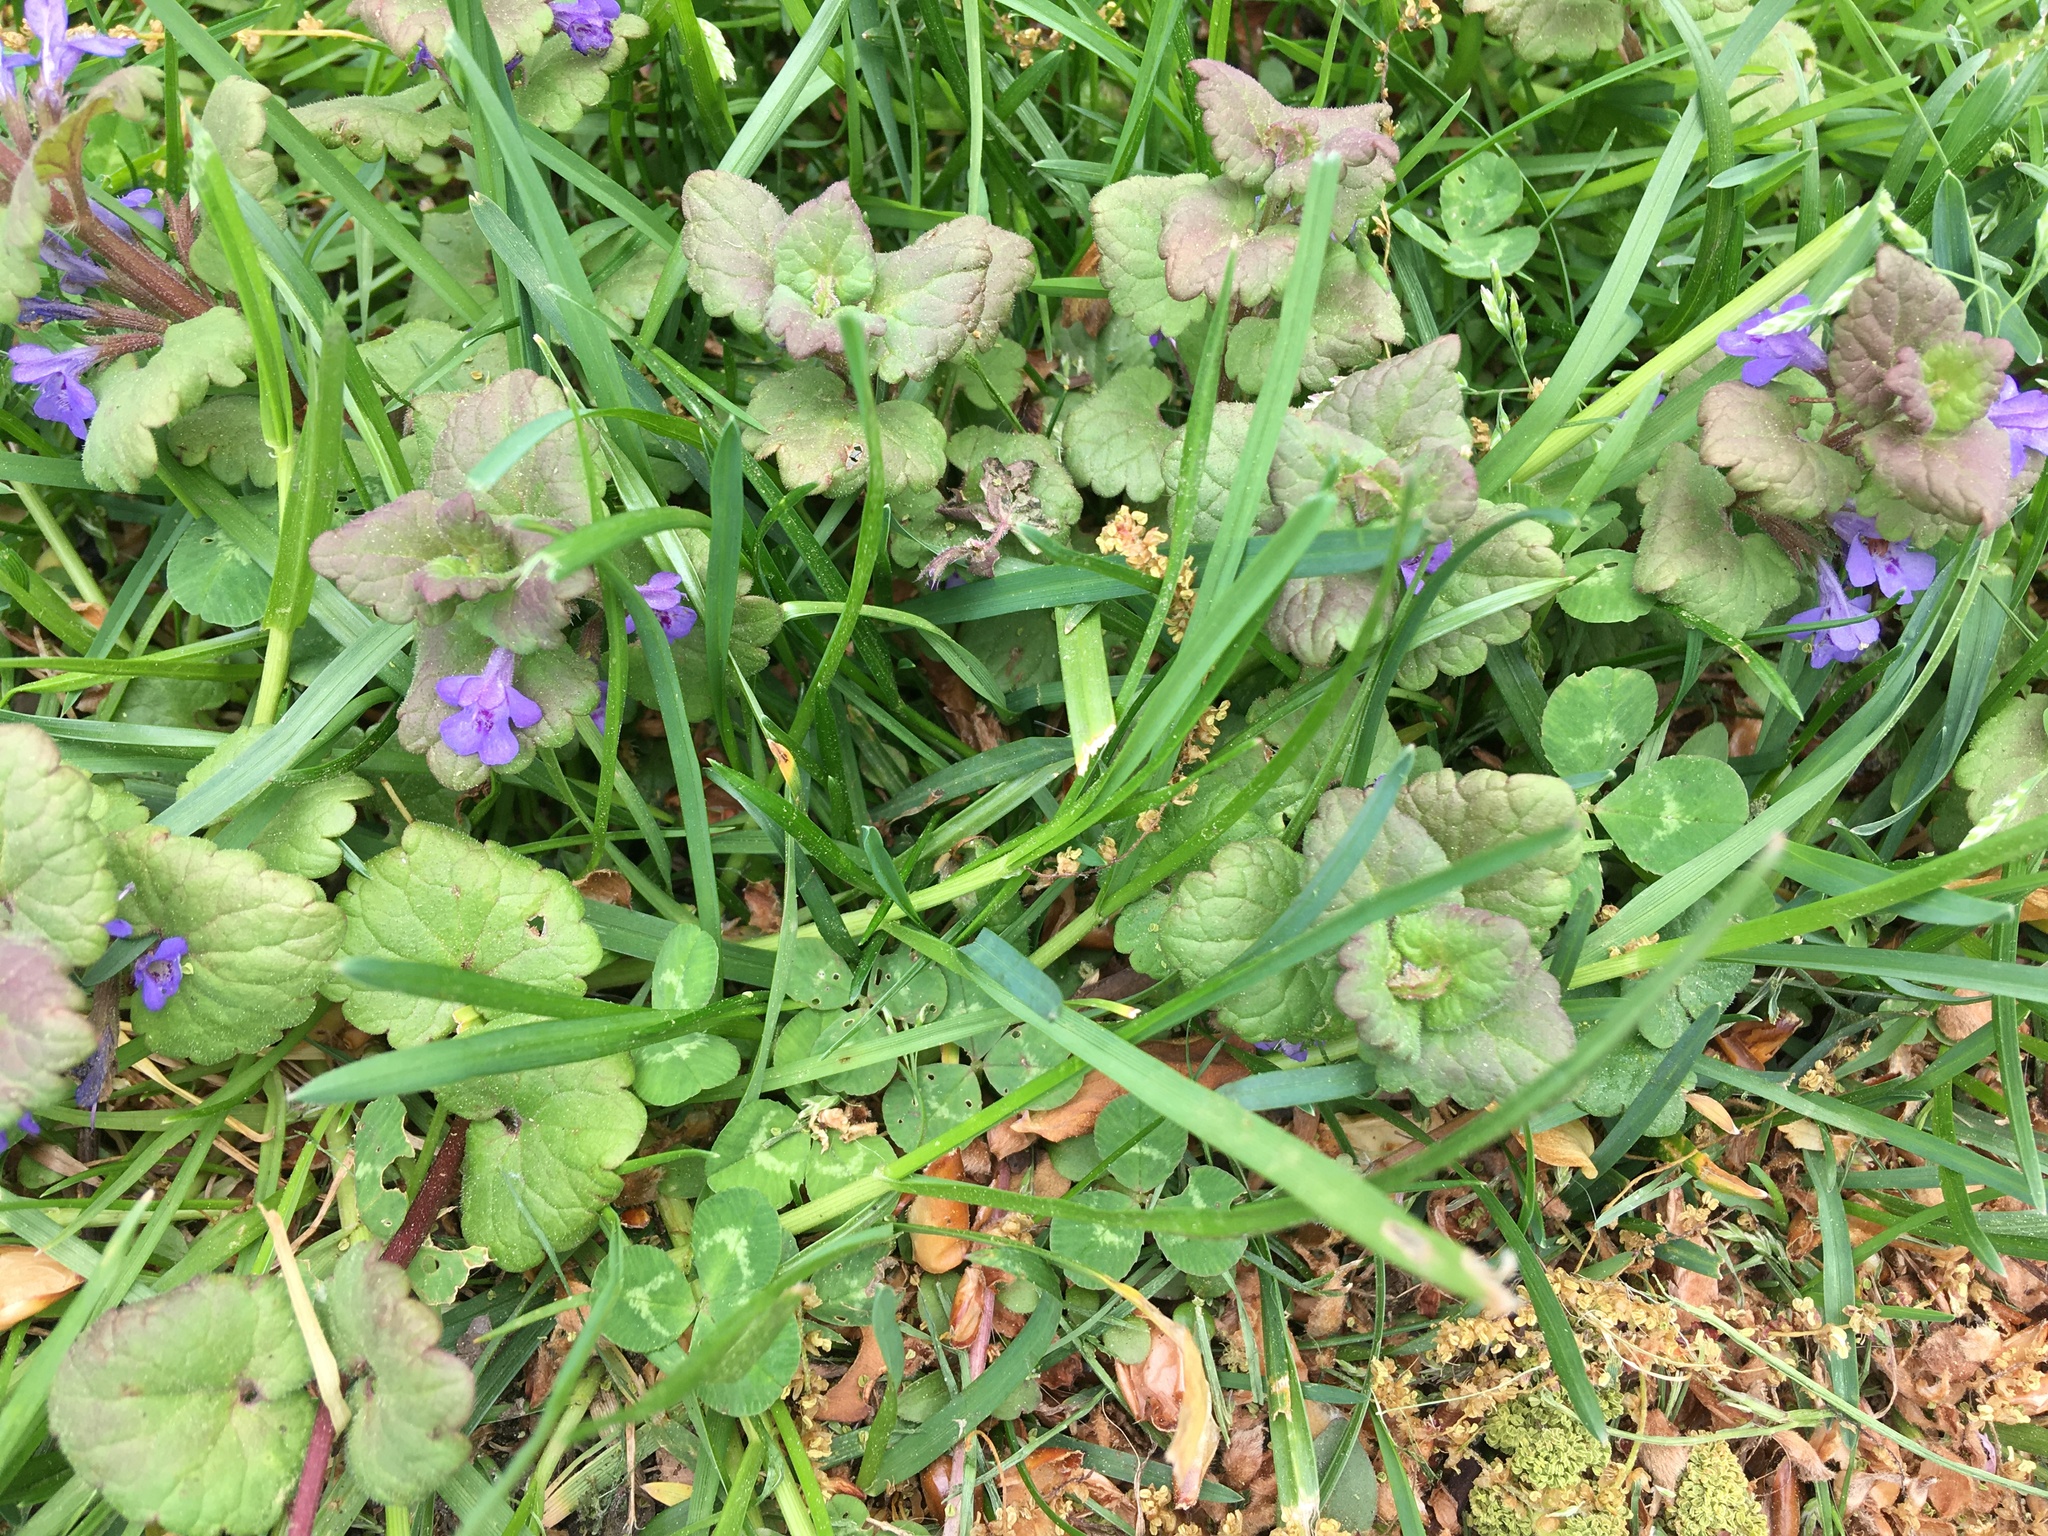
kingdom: Plantae
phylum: Tracheophyta
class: Magnoliopsida
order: Lamiales
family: Lamiaceae
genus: Glechoma
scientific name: Glechoma hederacea
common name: Ground ivy
